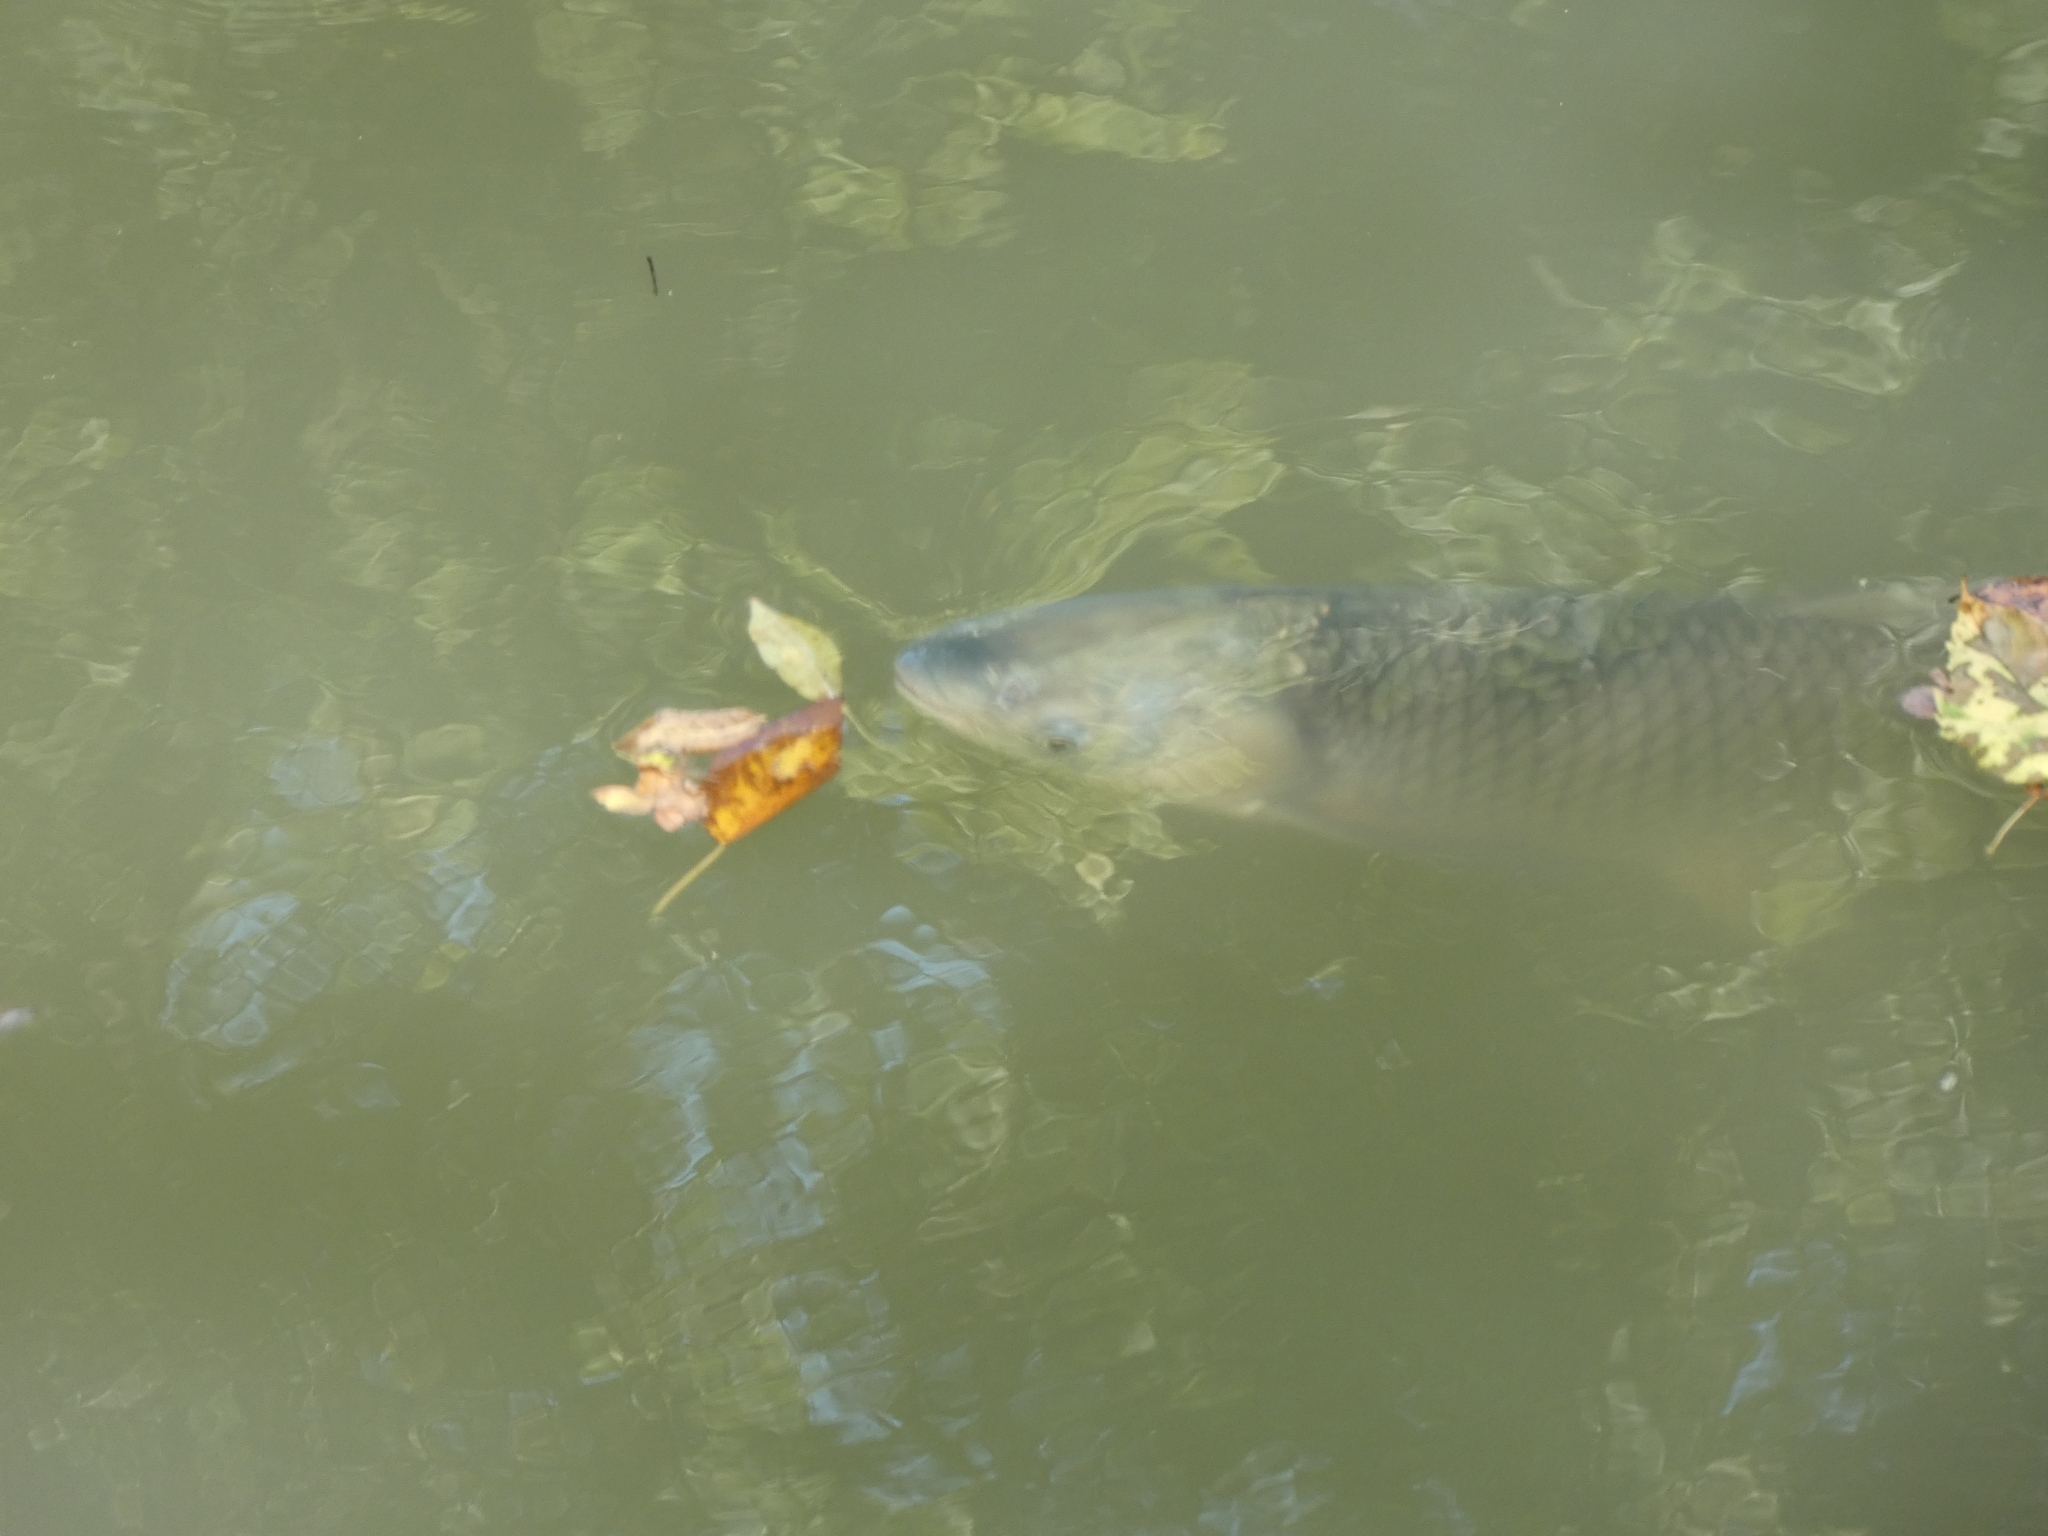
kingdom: Animalia
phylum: Chordata
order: Cypriniformes
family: Cyprinidae
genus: Ctenopharyngodon
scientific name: Ctenopharyngodon idella
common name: Grass carp
